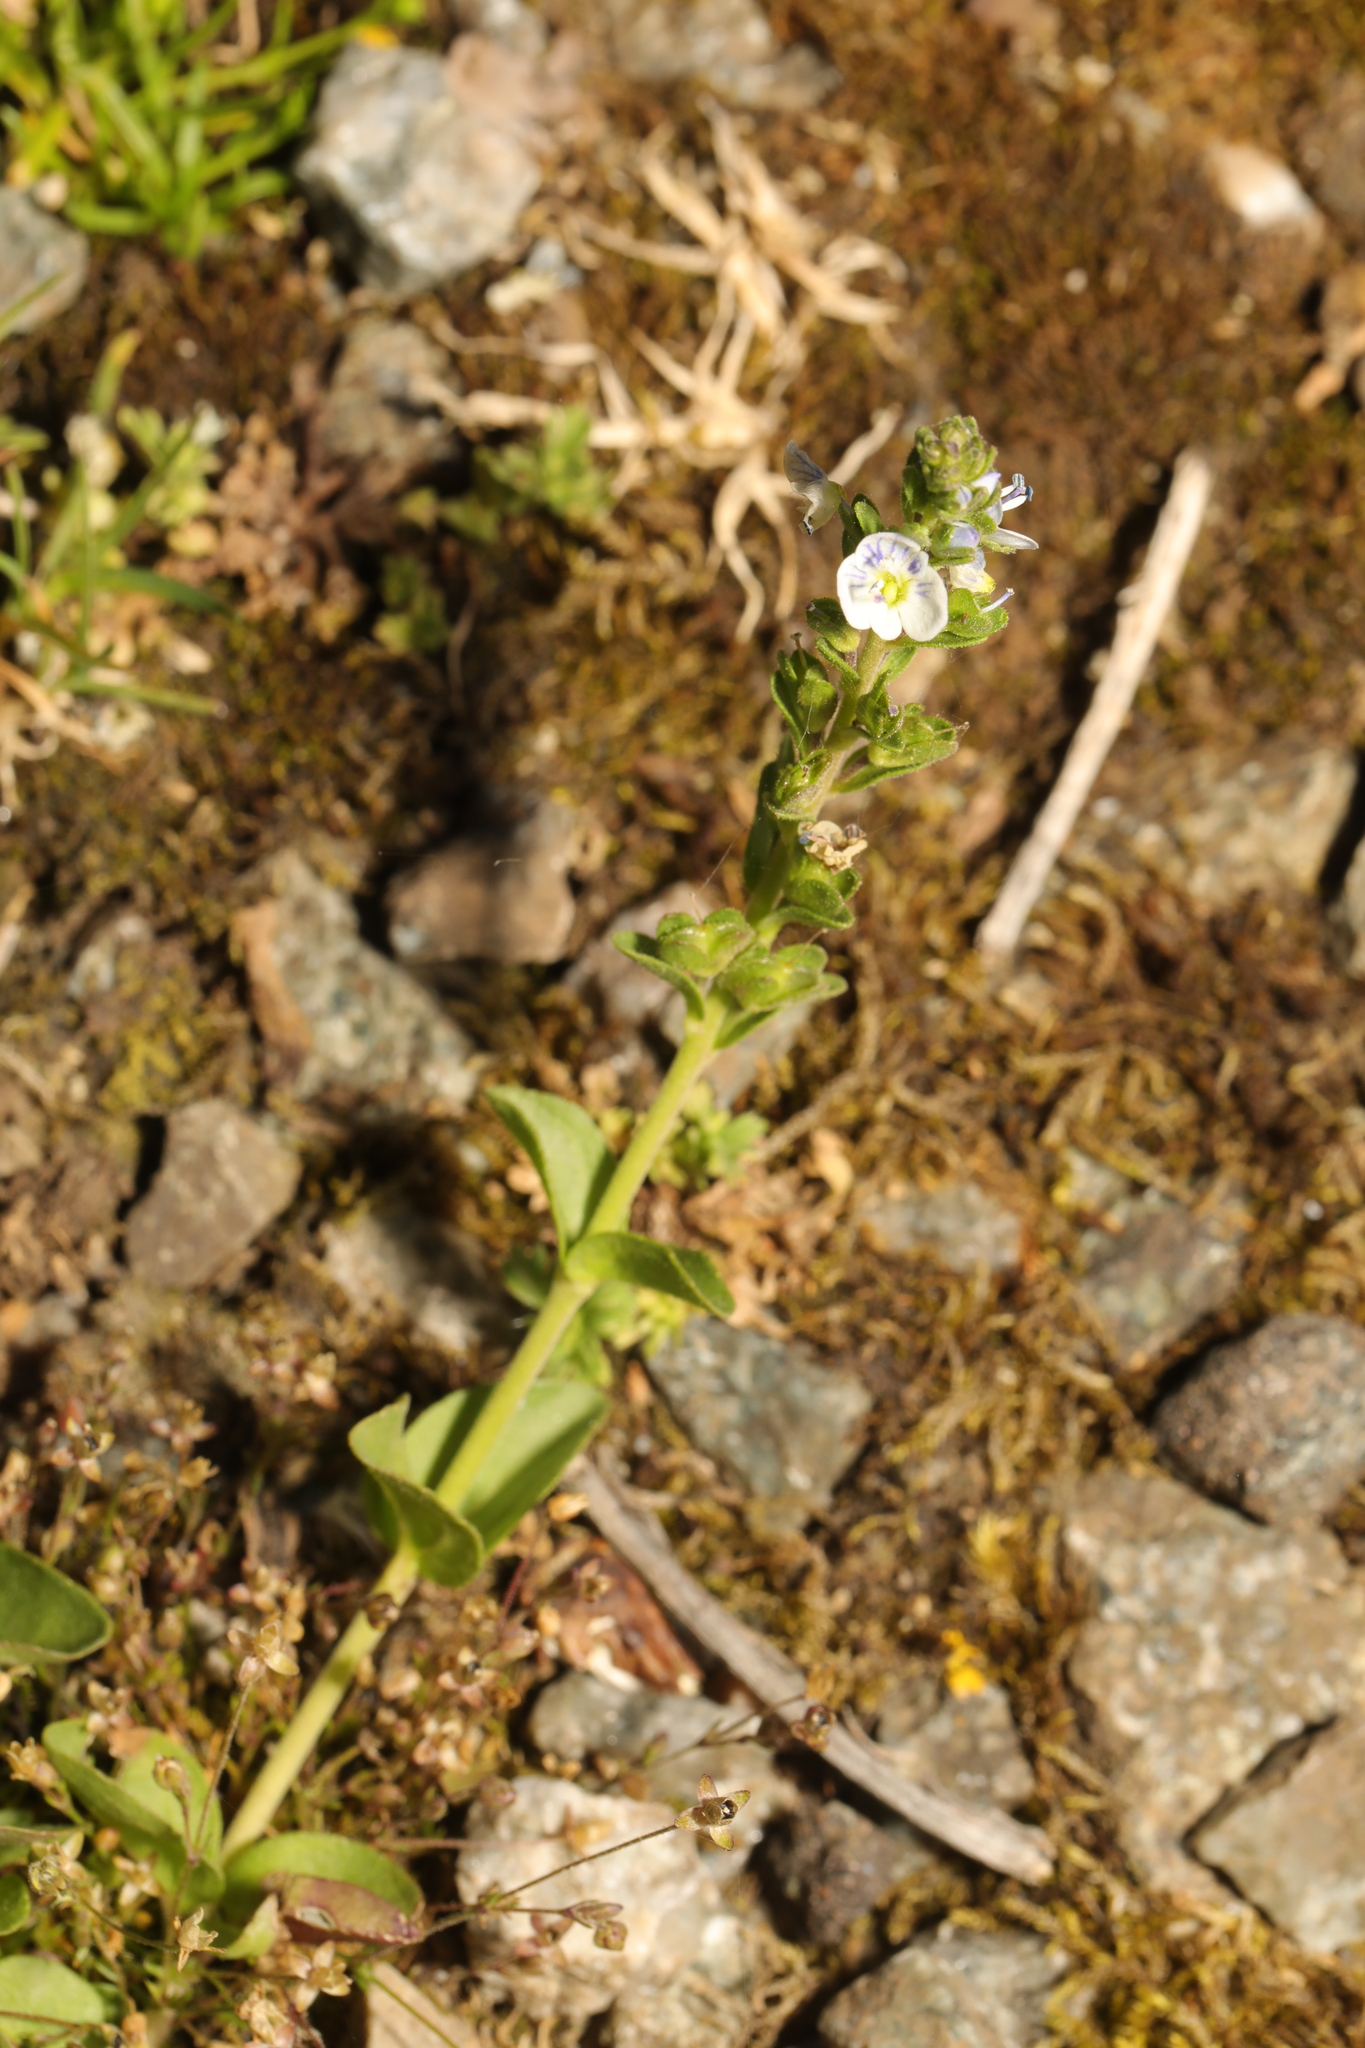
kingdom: Plantae
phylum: Tracheophyta
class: Magnoliopsida
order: Lamiales
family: Plantaginaceae
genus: Veronica
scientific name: Veronica serpyllifolia
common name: Thyme-leaved speedwell
